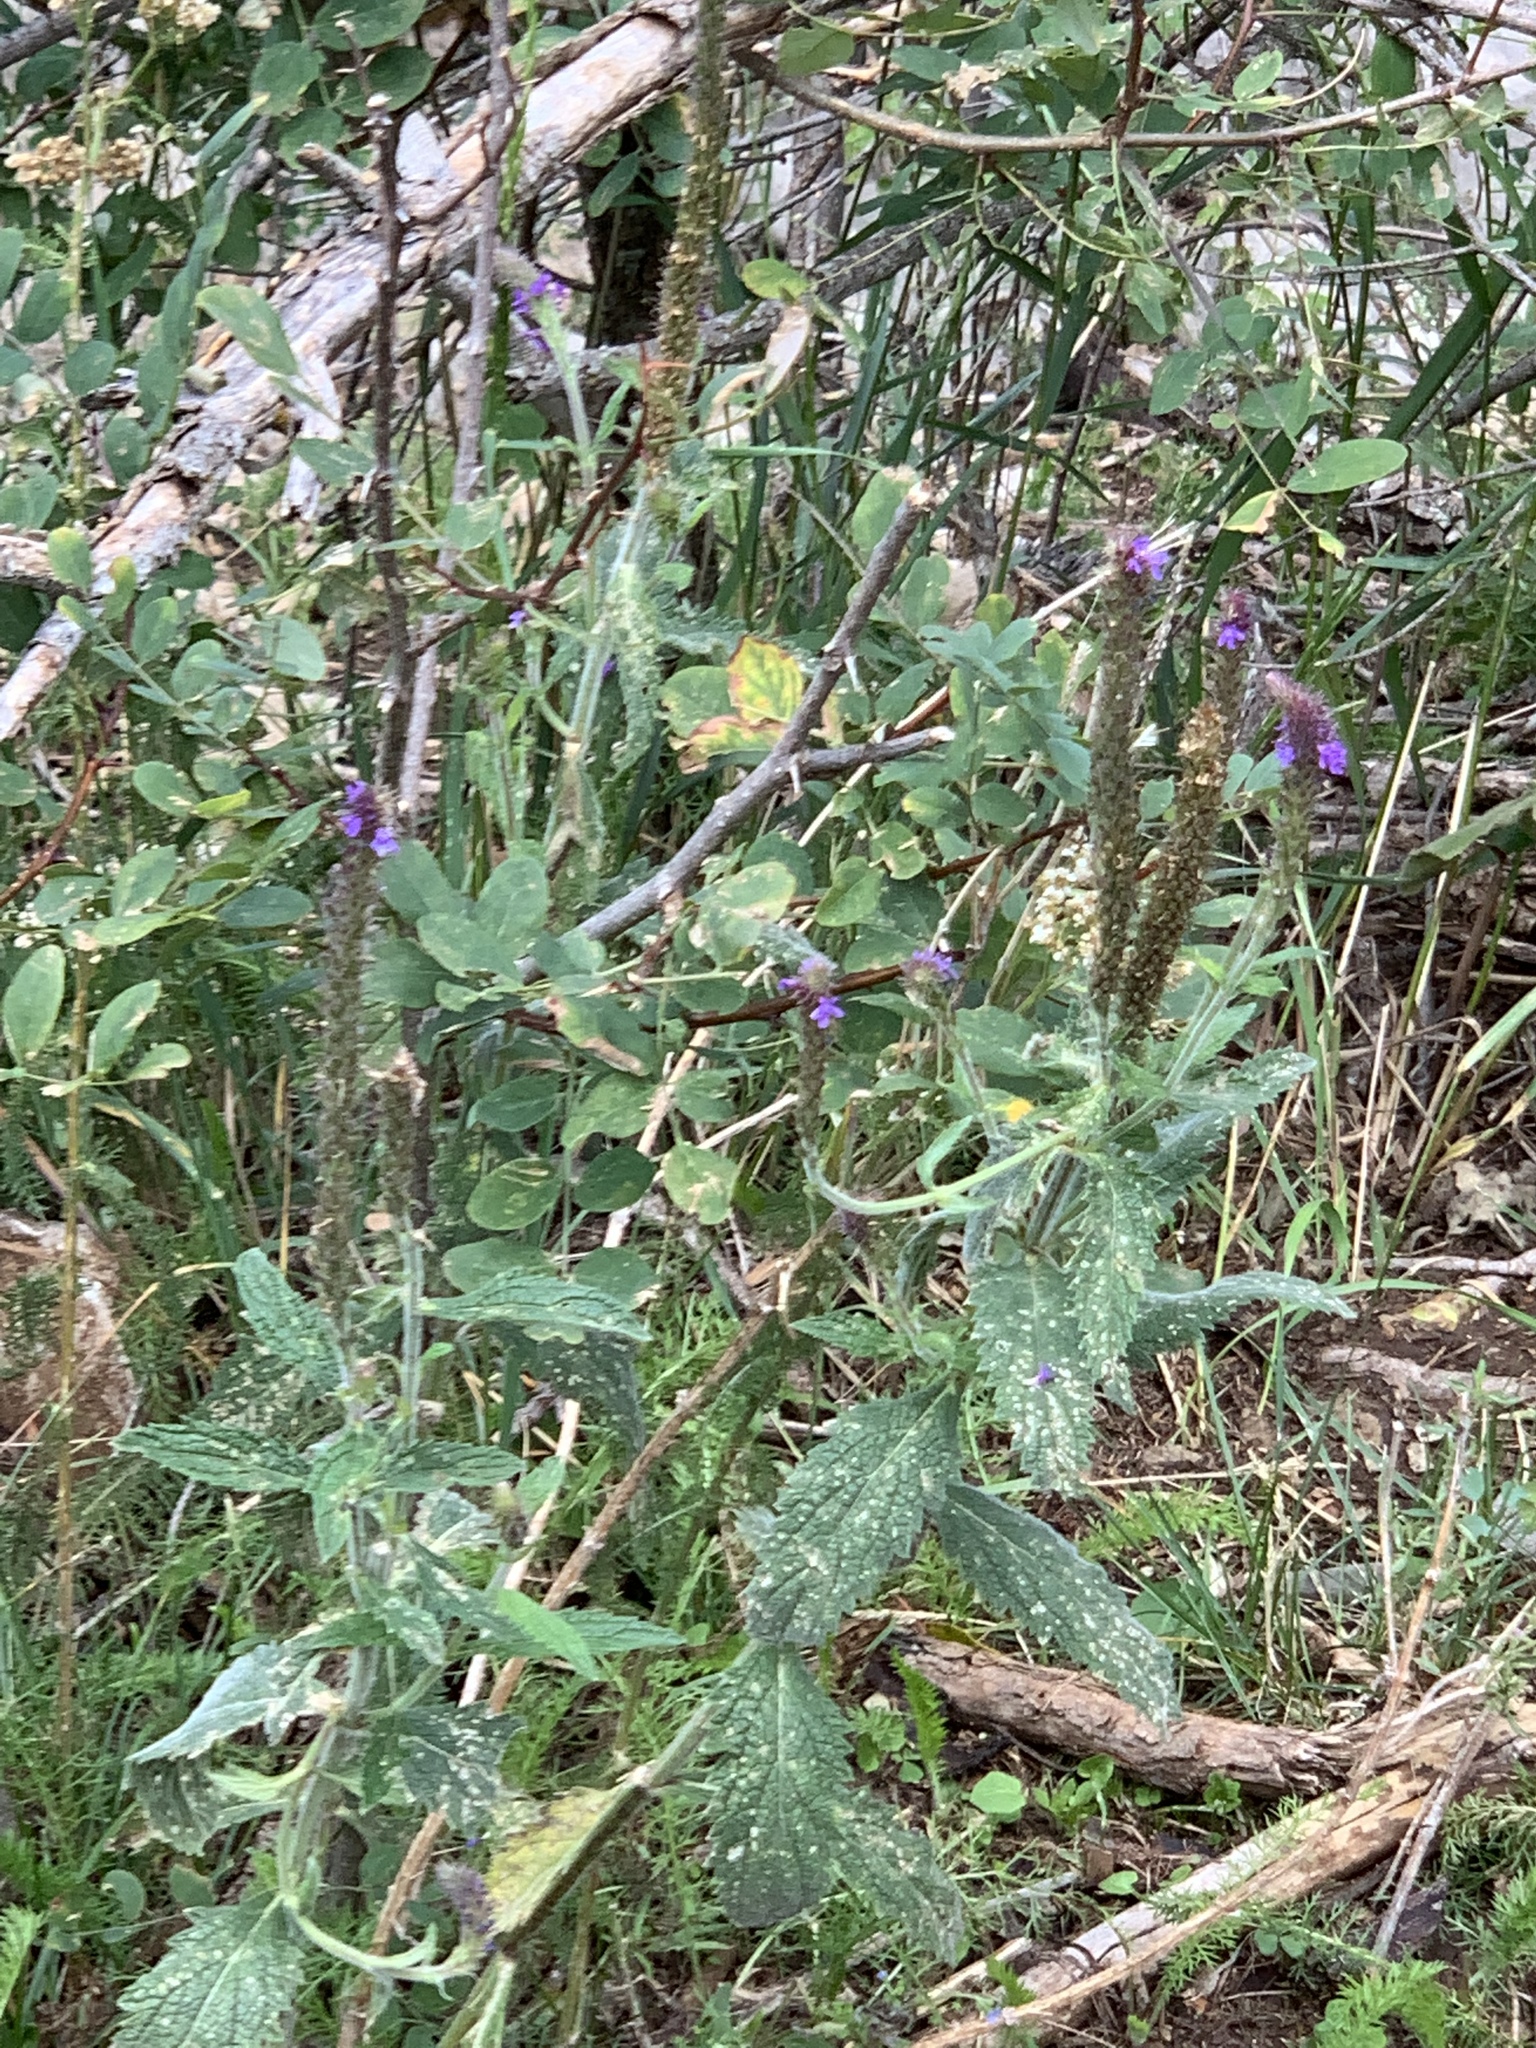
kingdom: Plantae
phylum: Tracheophyta
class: Magnoliopsida
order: Lamiales
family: Verbenaceae
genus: Verbena
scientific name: Verbena macdougalii
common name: New mexico vervain
